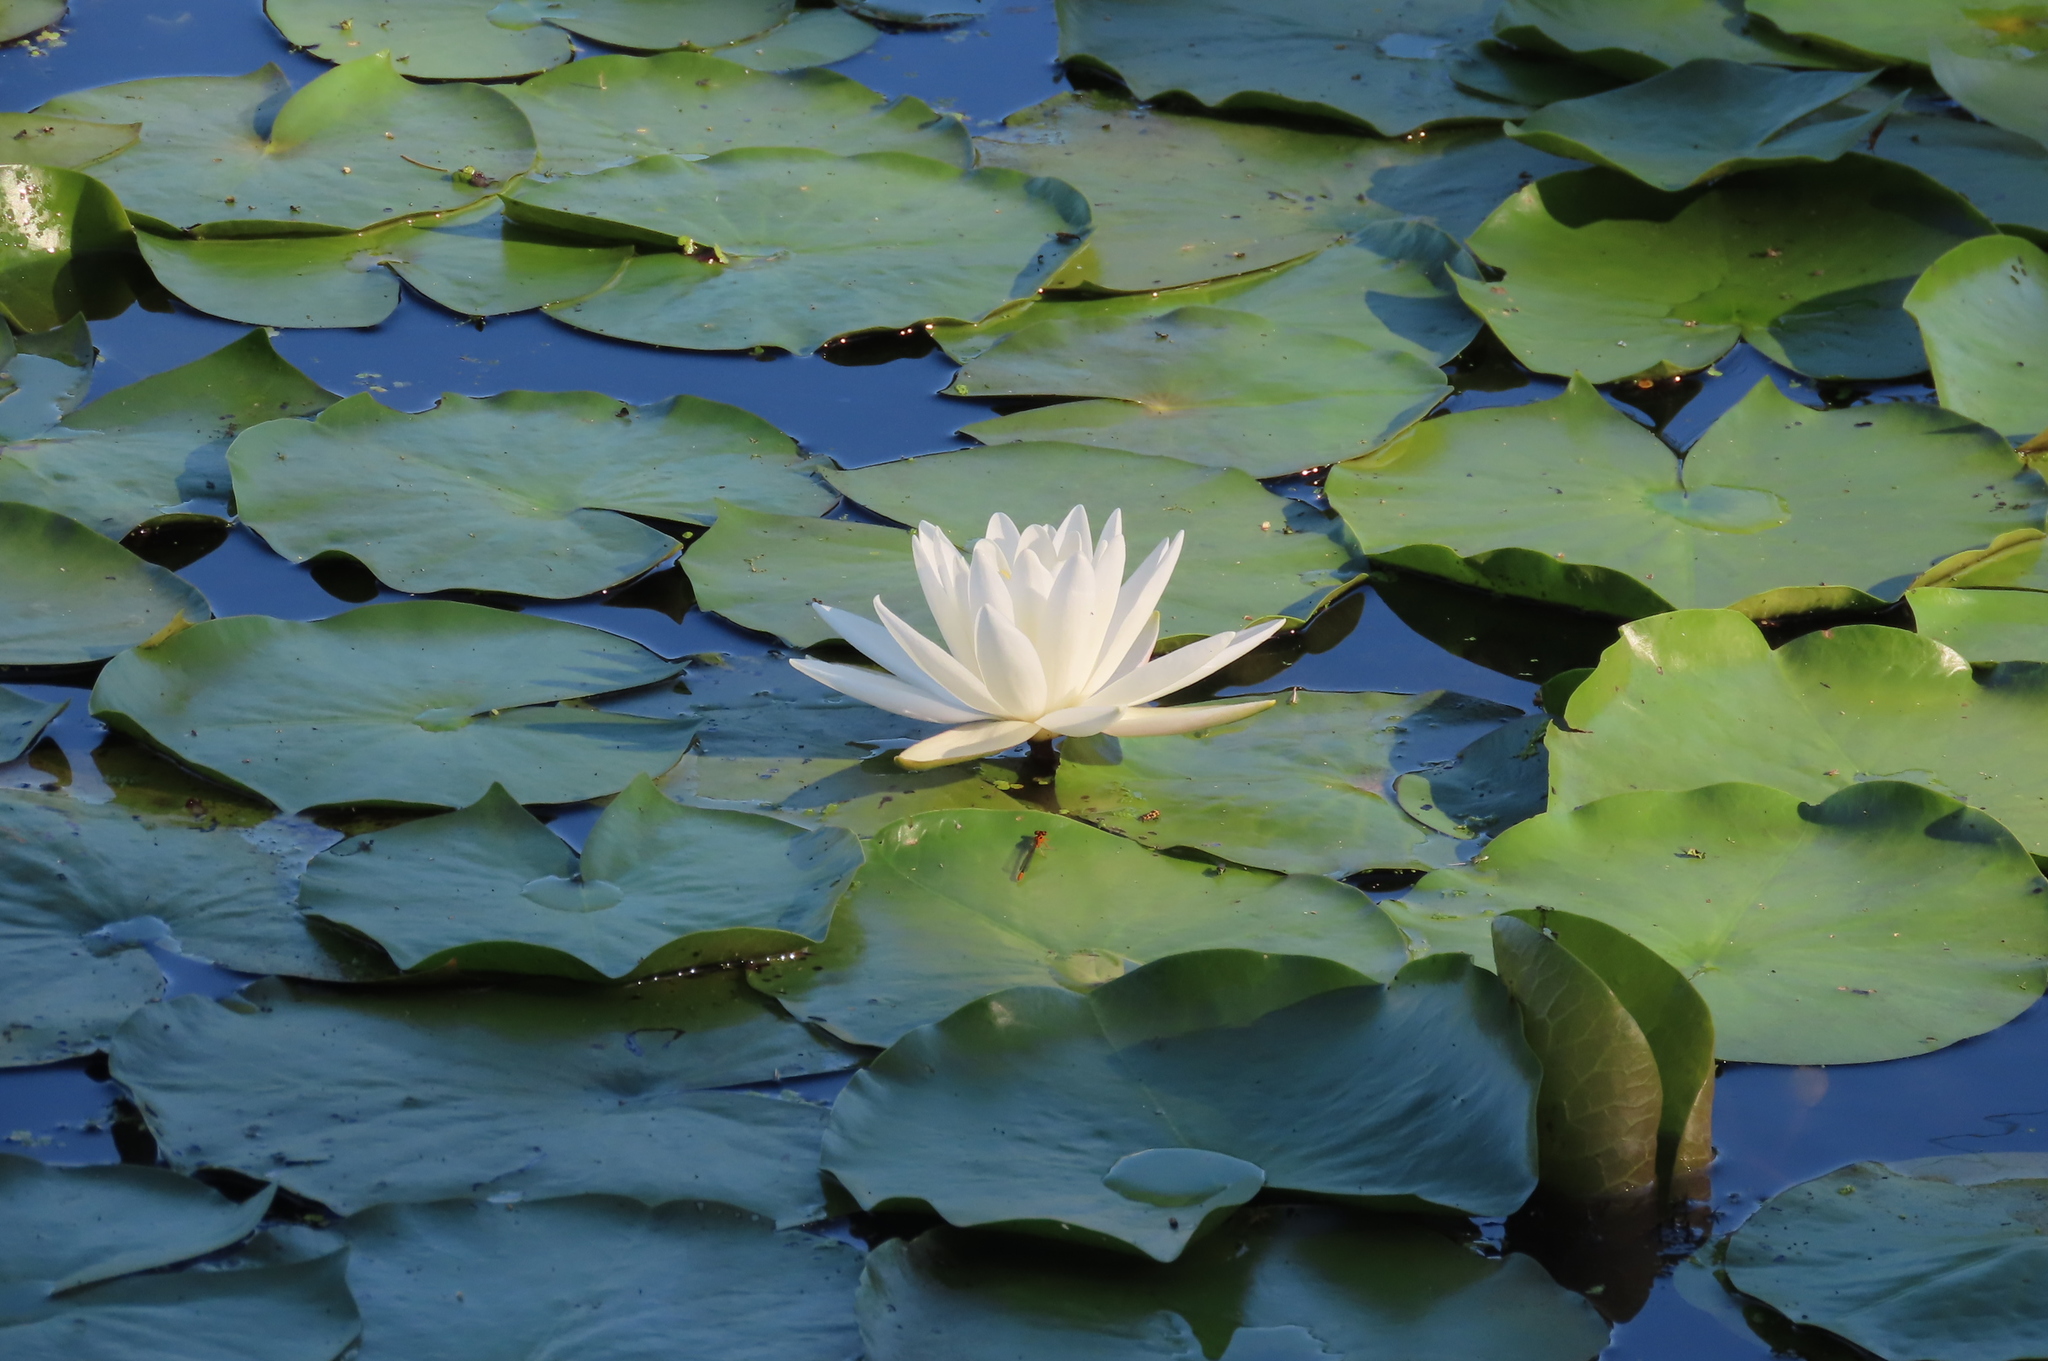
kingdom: Plantae
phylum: Tracheophyta
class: Magnoliopsida
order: Nymphaeales
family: Nymphaeaceae
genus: Nymphaea
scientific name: Nymphaea odorata
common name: Fragrant water-lily
